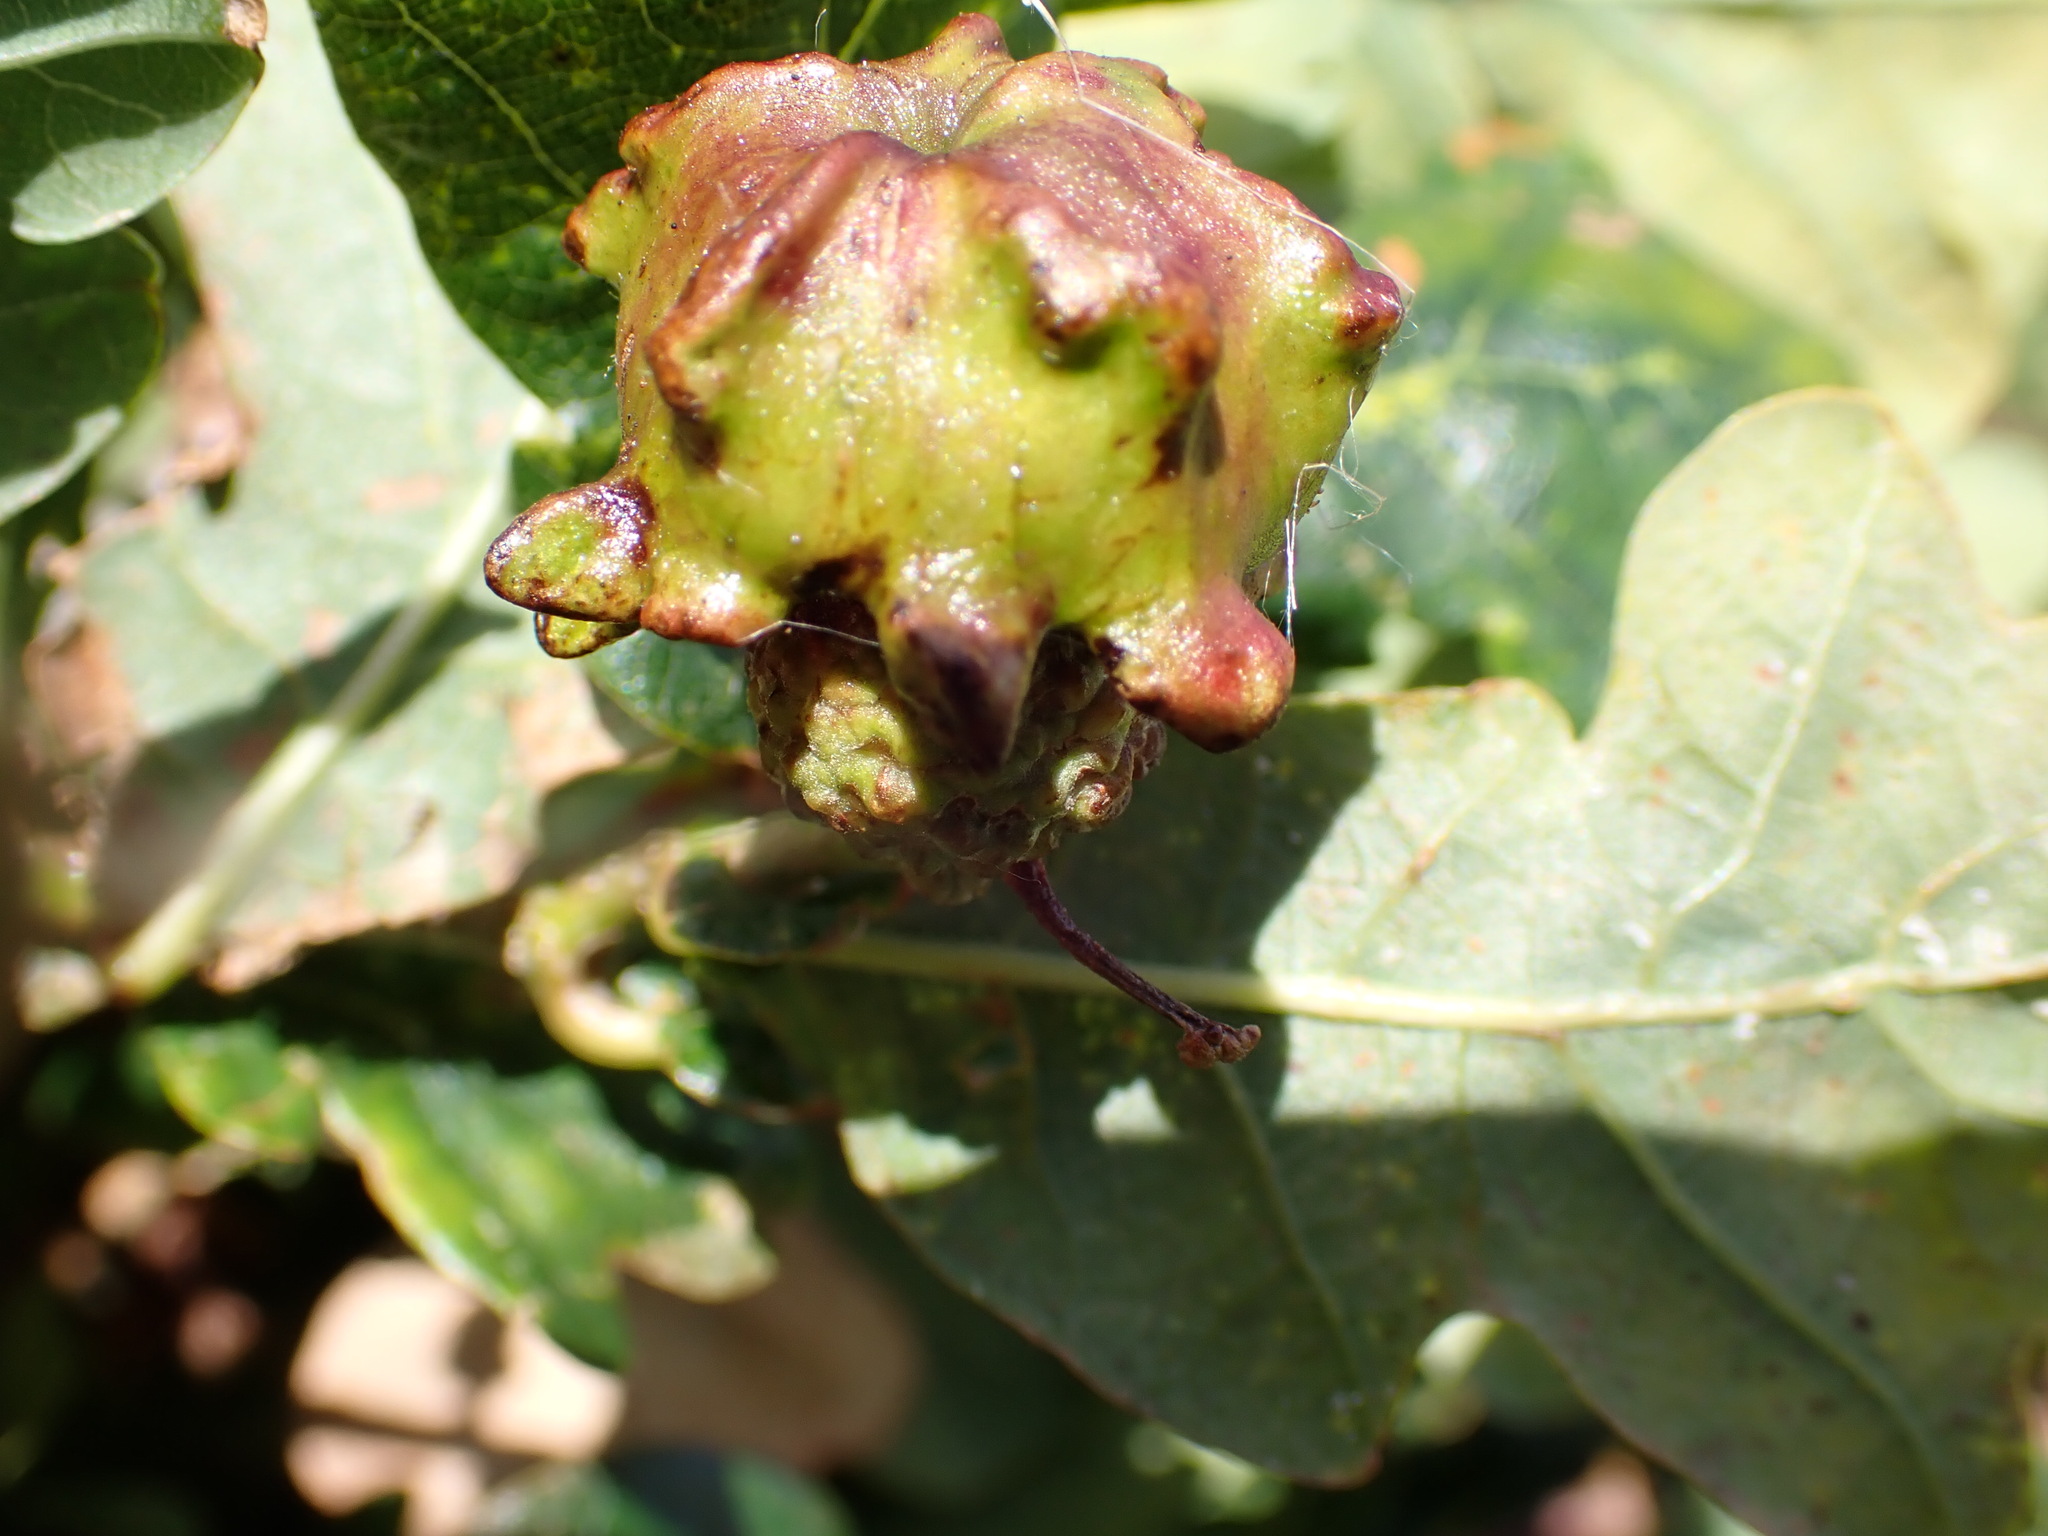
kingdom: Animalia
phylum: Arthropoda
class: Insecta
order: Hymenoptera
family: Cynipidae
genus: Andricus
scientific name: Andricus quercuscalicis
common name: Knopper gall
